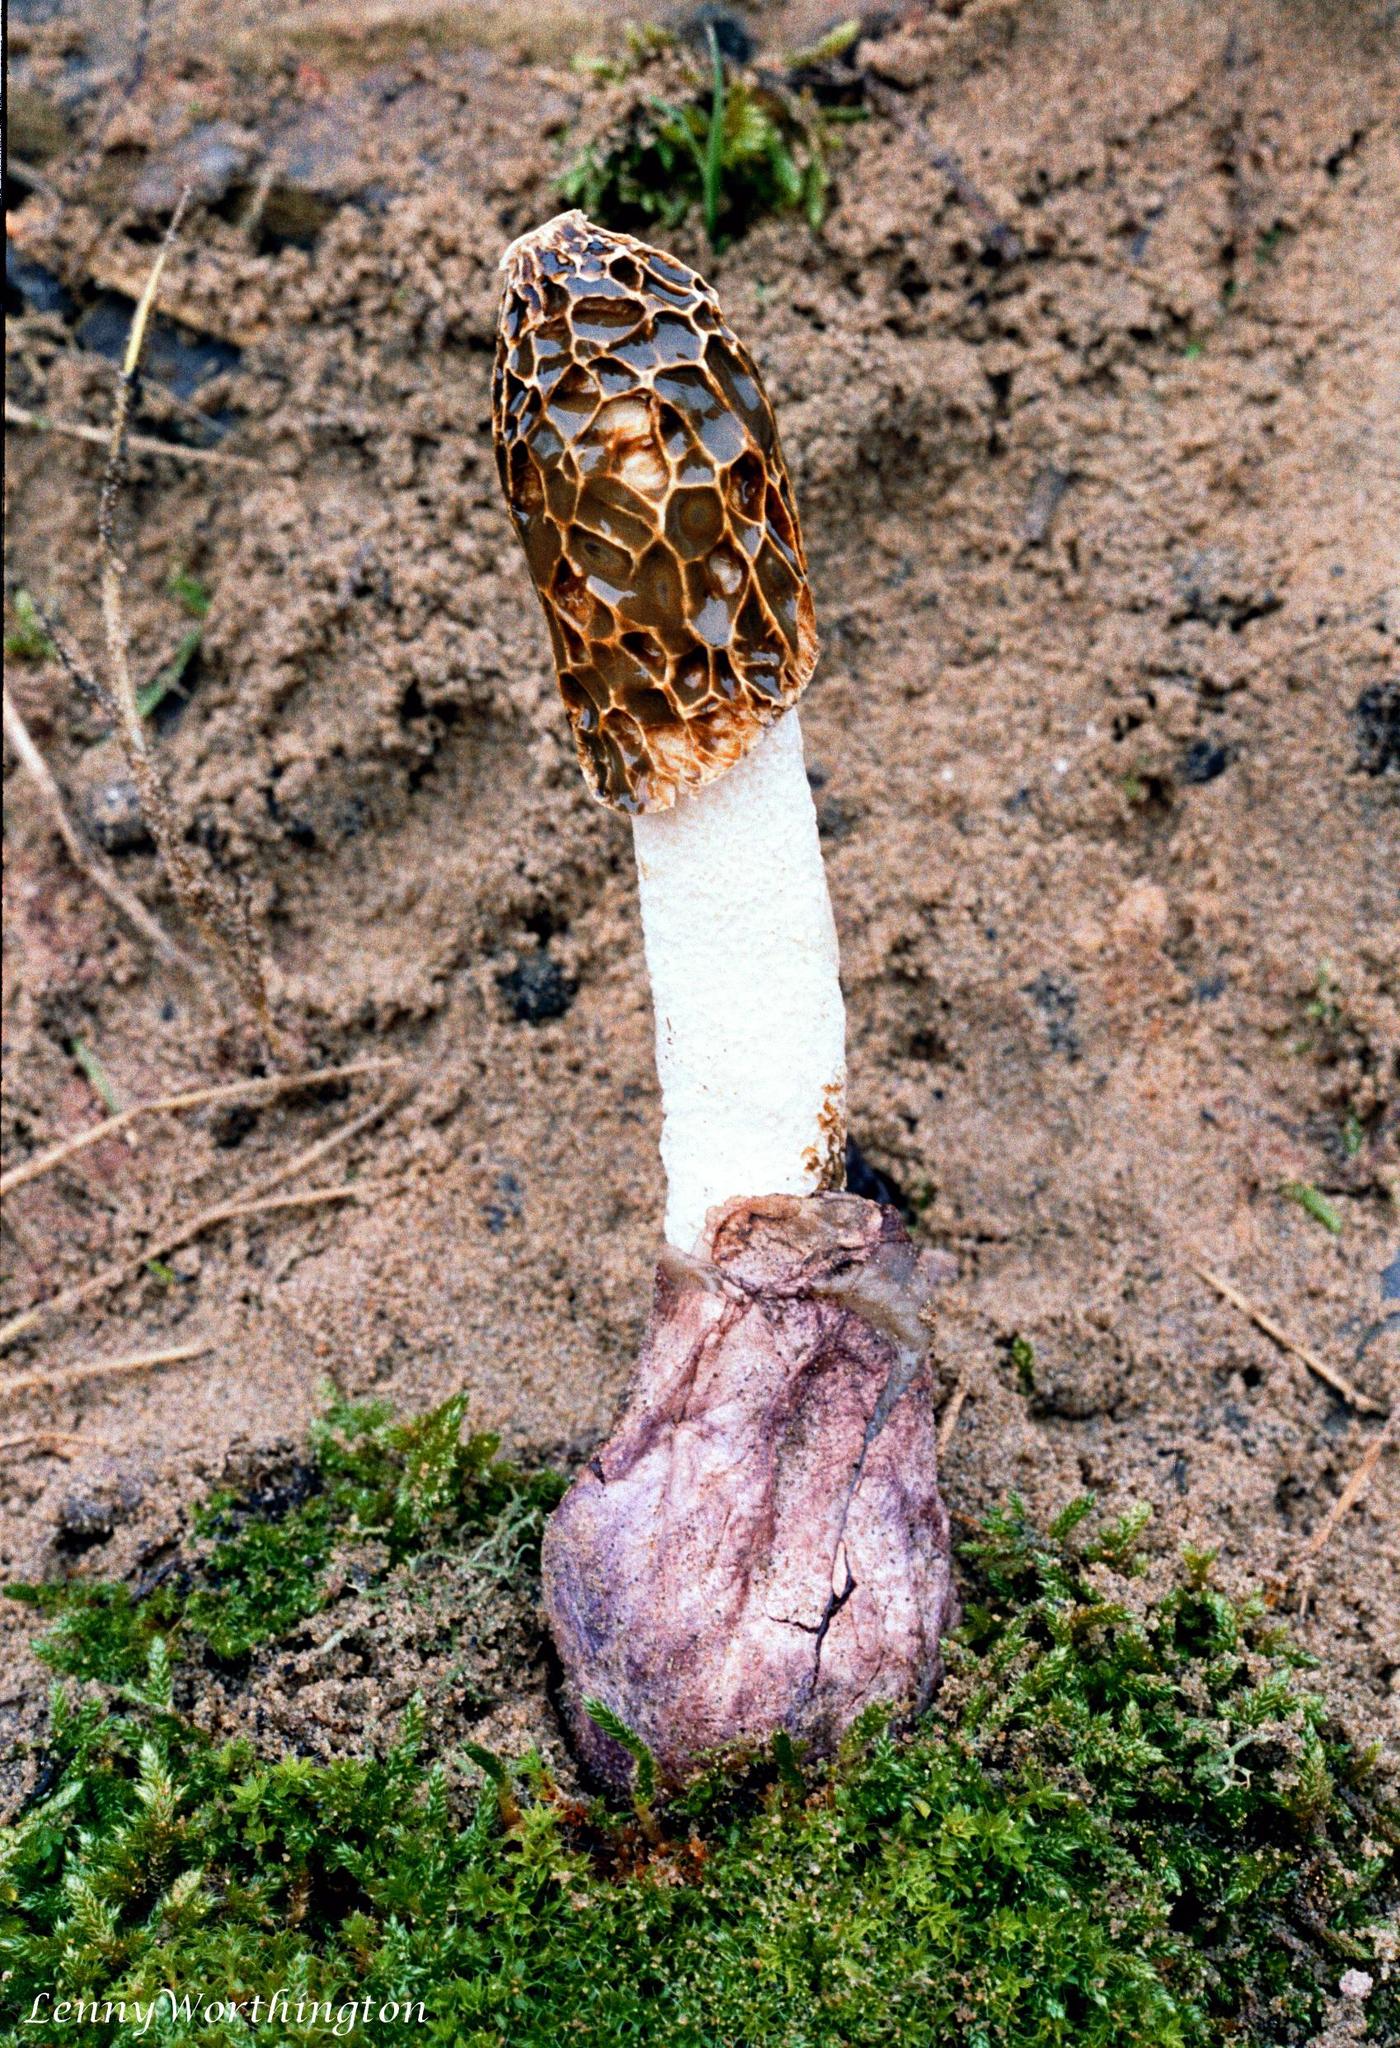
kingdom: Fungi
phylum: Basidiomycota
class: Agaricomycetes
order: Phallales
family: Phallaceae
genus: Phallus
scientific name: Phallus hadriani
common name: Sand stinkhorn
